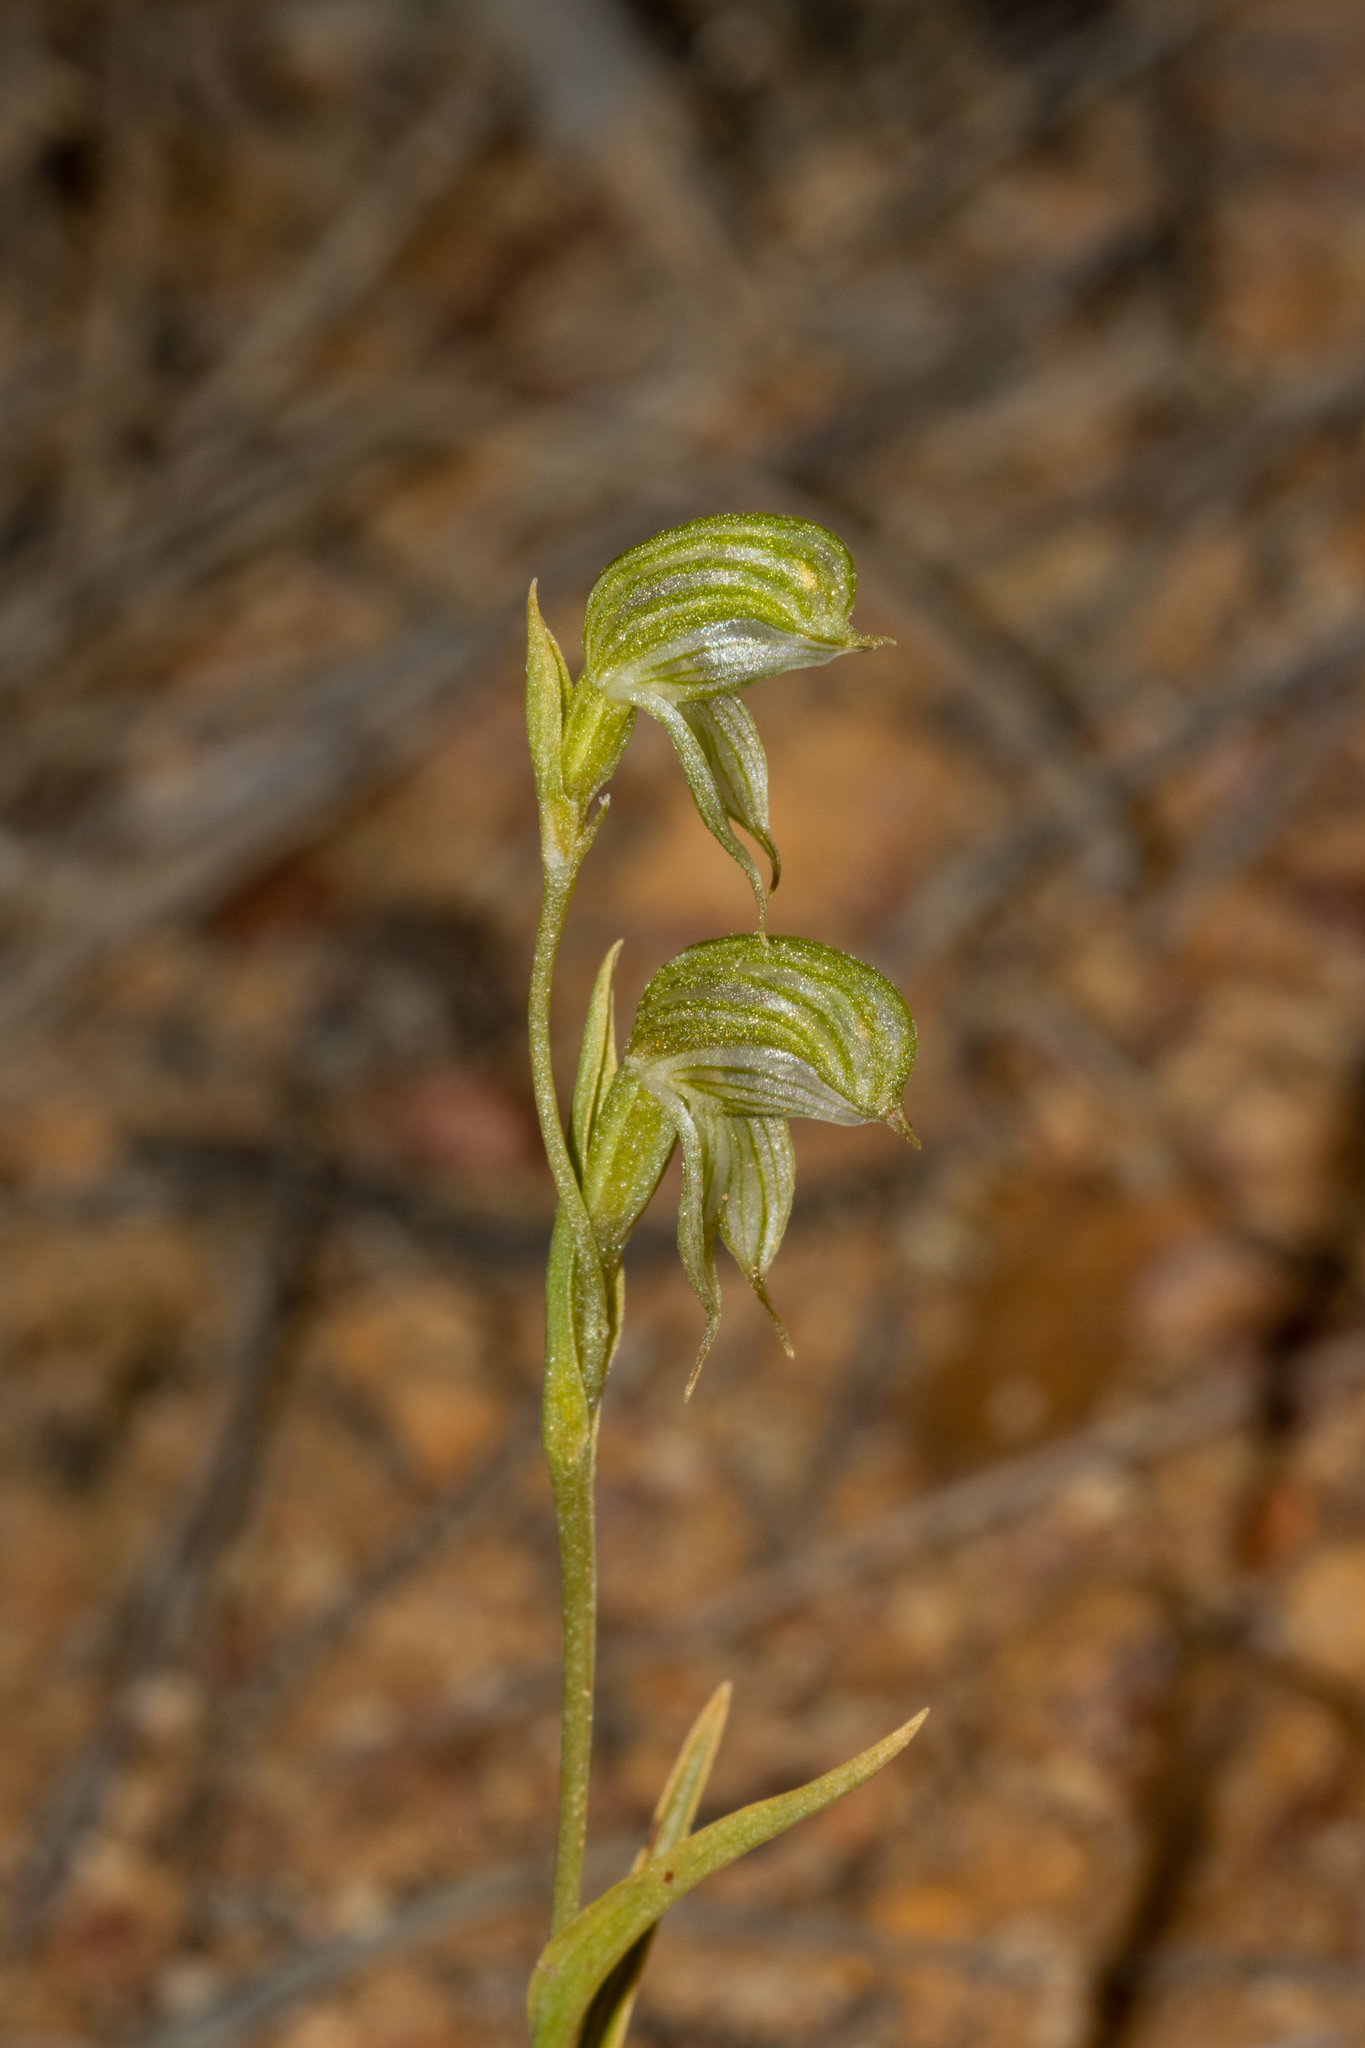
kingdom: Plantae
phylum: Tracheophyta
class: Liliopsida
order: Asparagales
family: Orchidaceae
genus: Pterostylis
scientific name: Pterostylis
